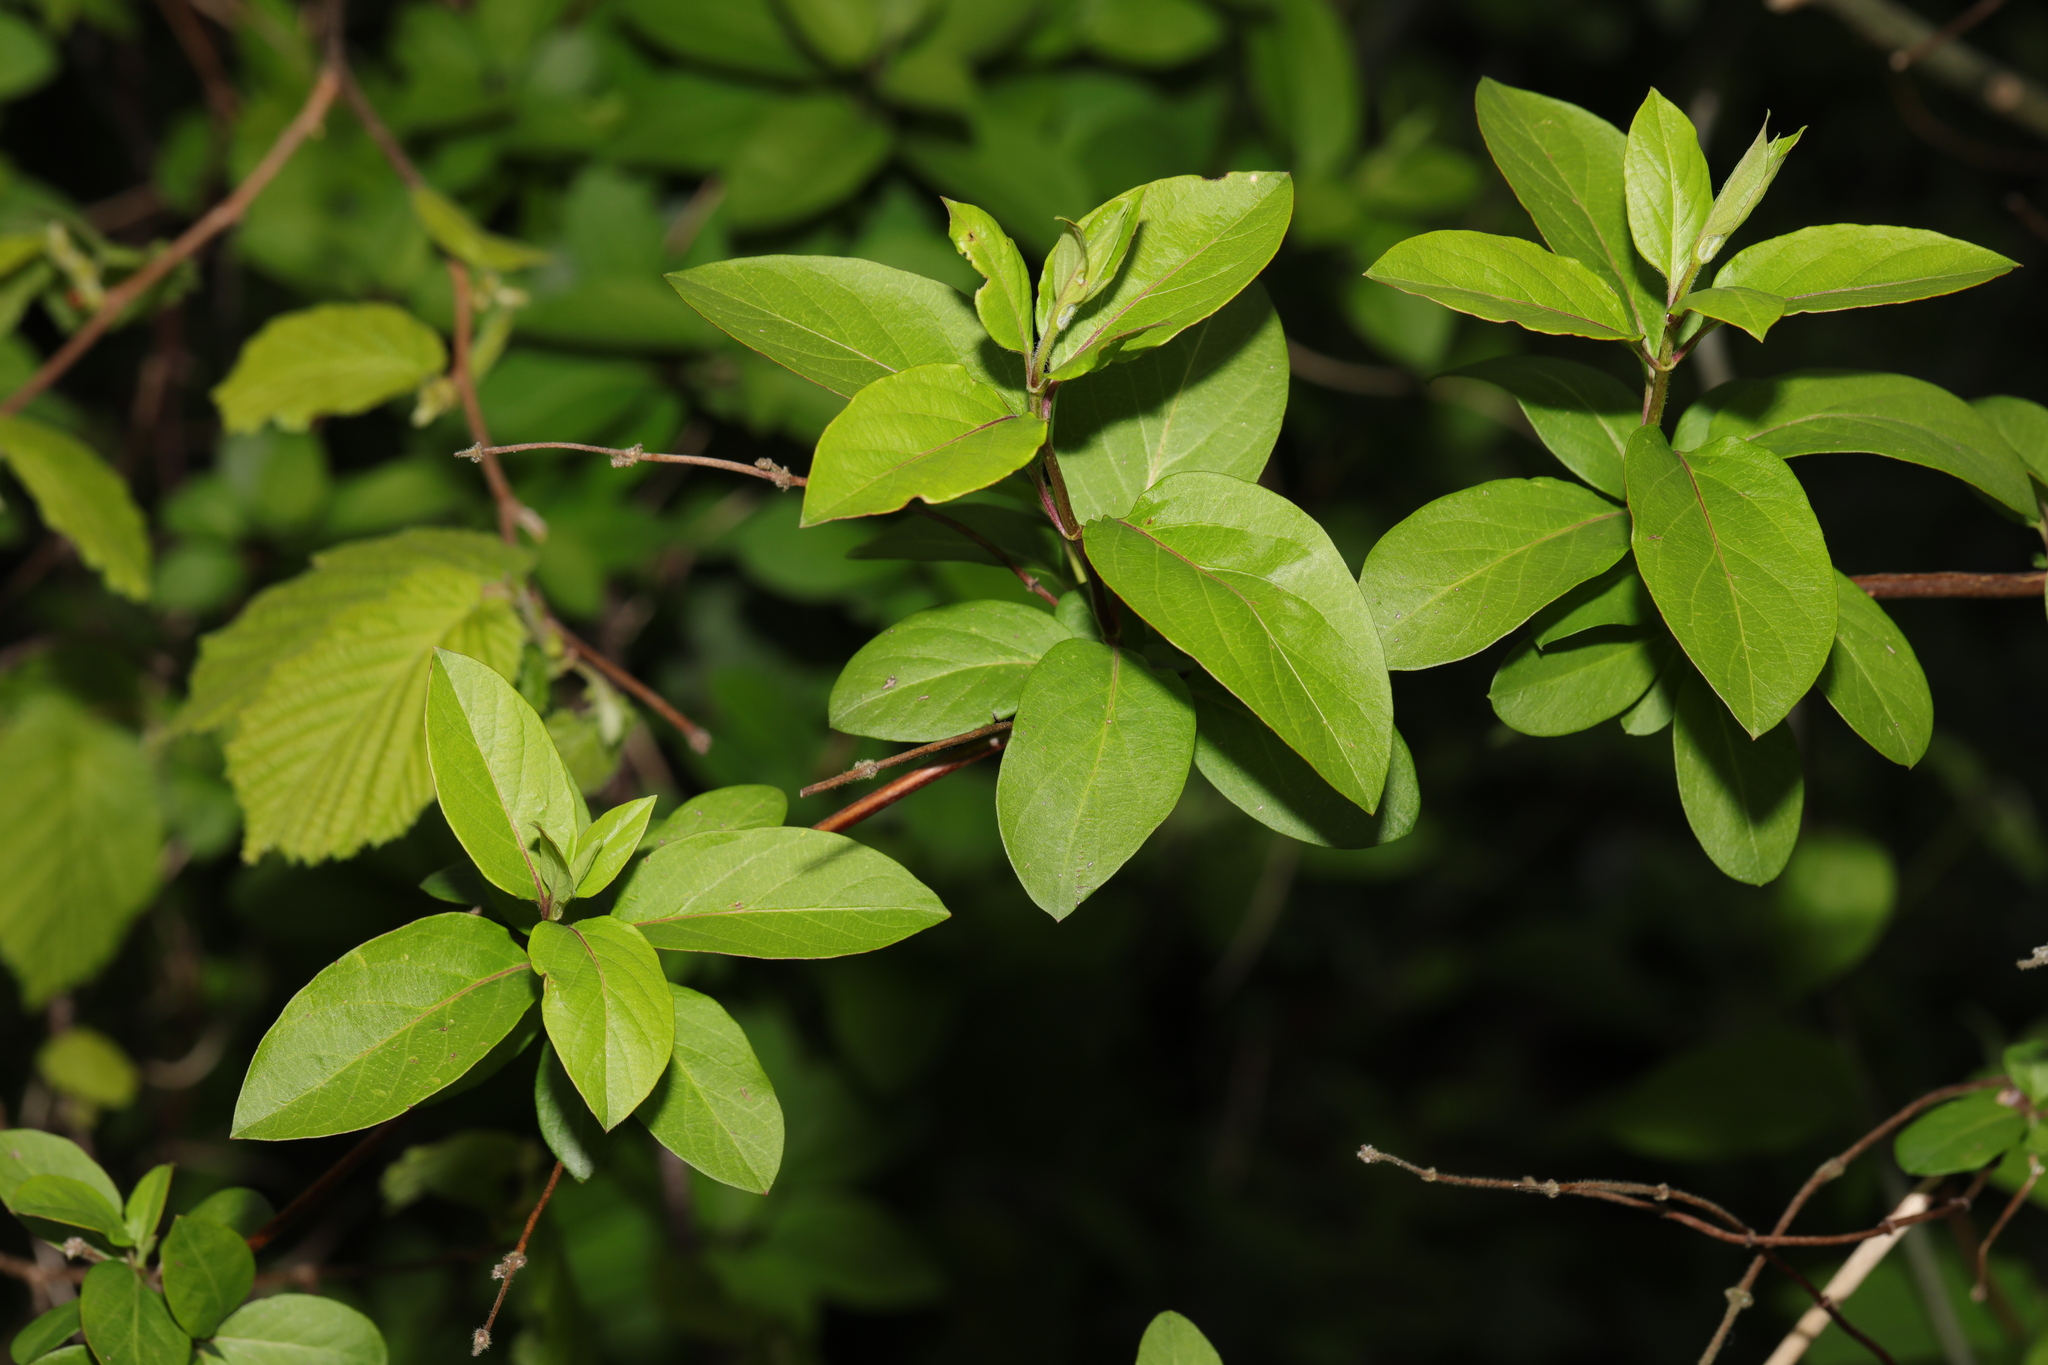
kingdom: Plantae
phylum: Tracheophyta
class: Magnoliopsida
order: Dipsacales
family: Caprifoliaceae
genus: Lonicera
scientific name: Lonicera japonica
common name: Japanese honeysuckle
